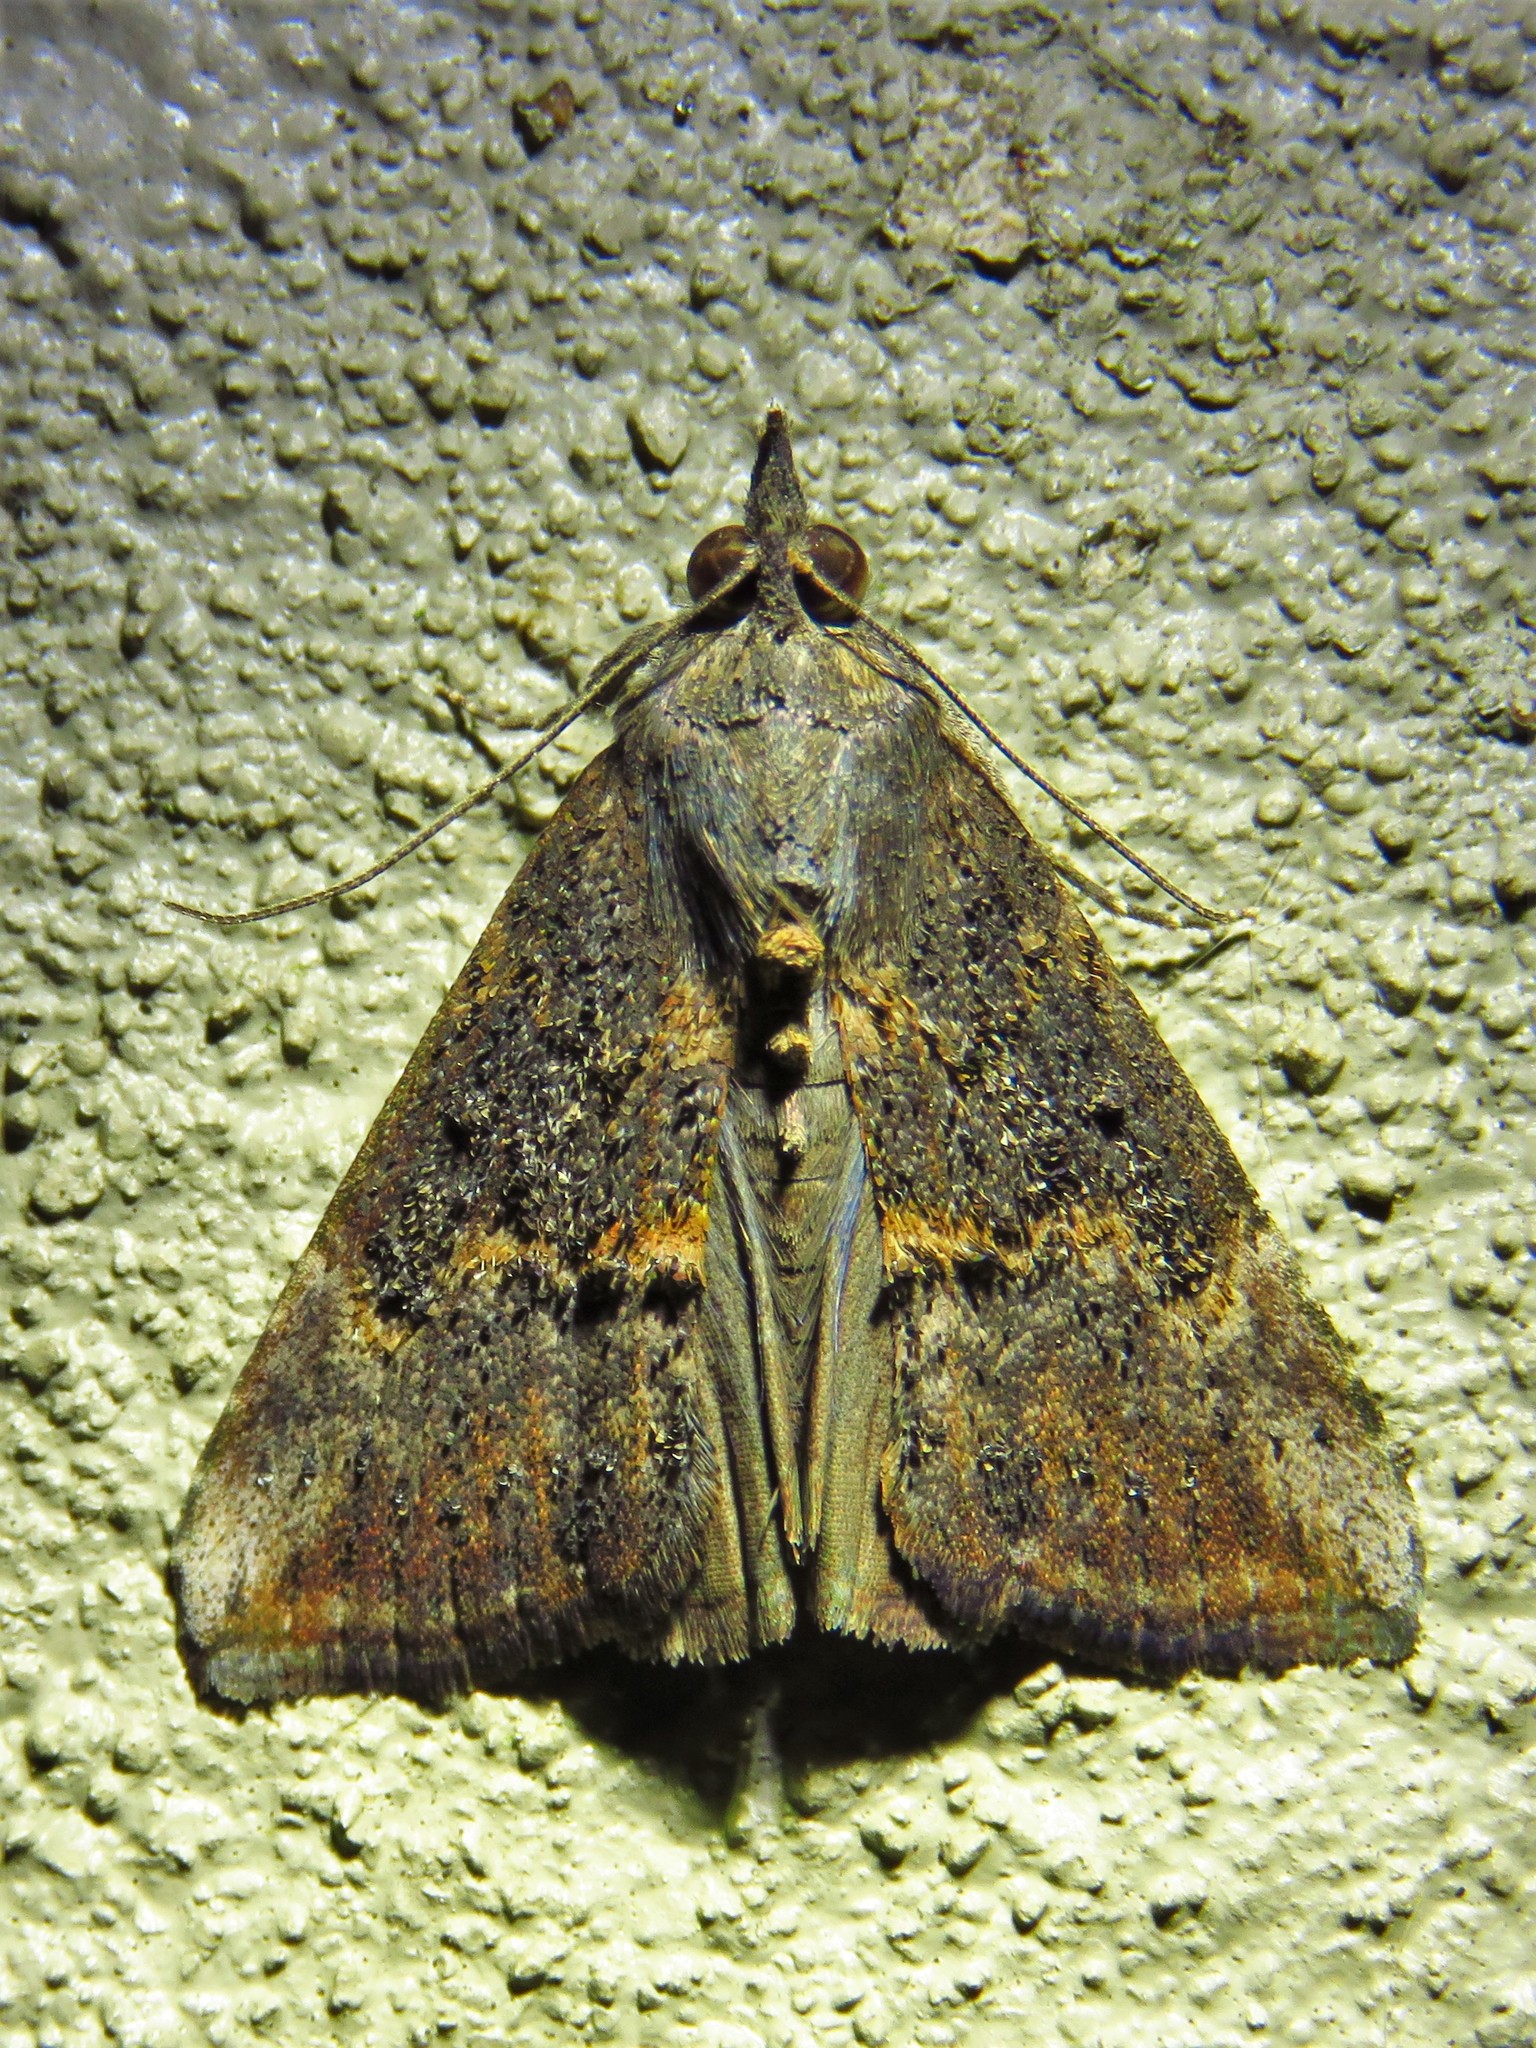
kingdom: Animalia
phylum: Arthropoda
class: Insecta
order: Lepidoptera
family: Erebidae
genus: Hypena
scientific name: Hypena scabra
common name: Green cloverworm
